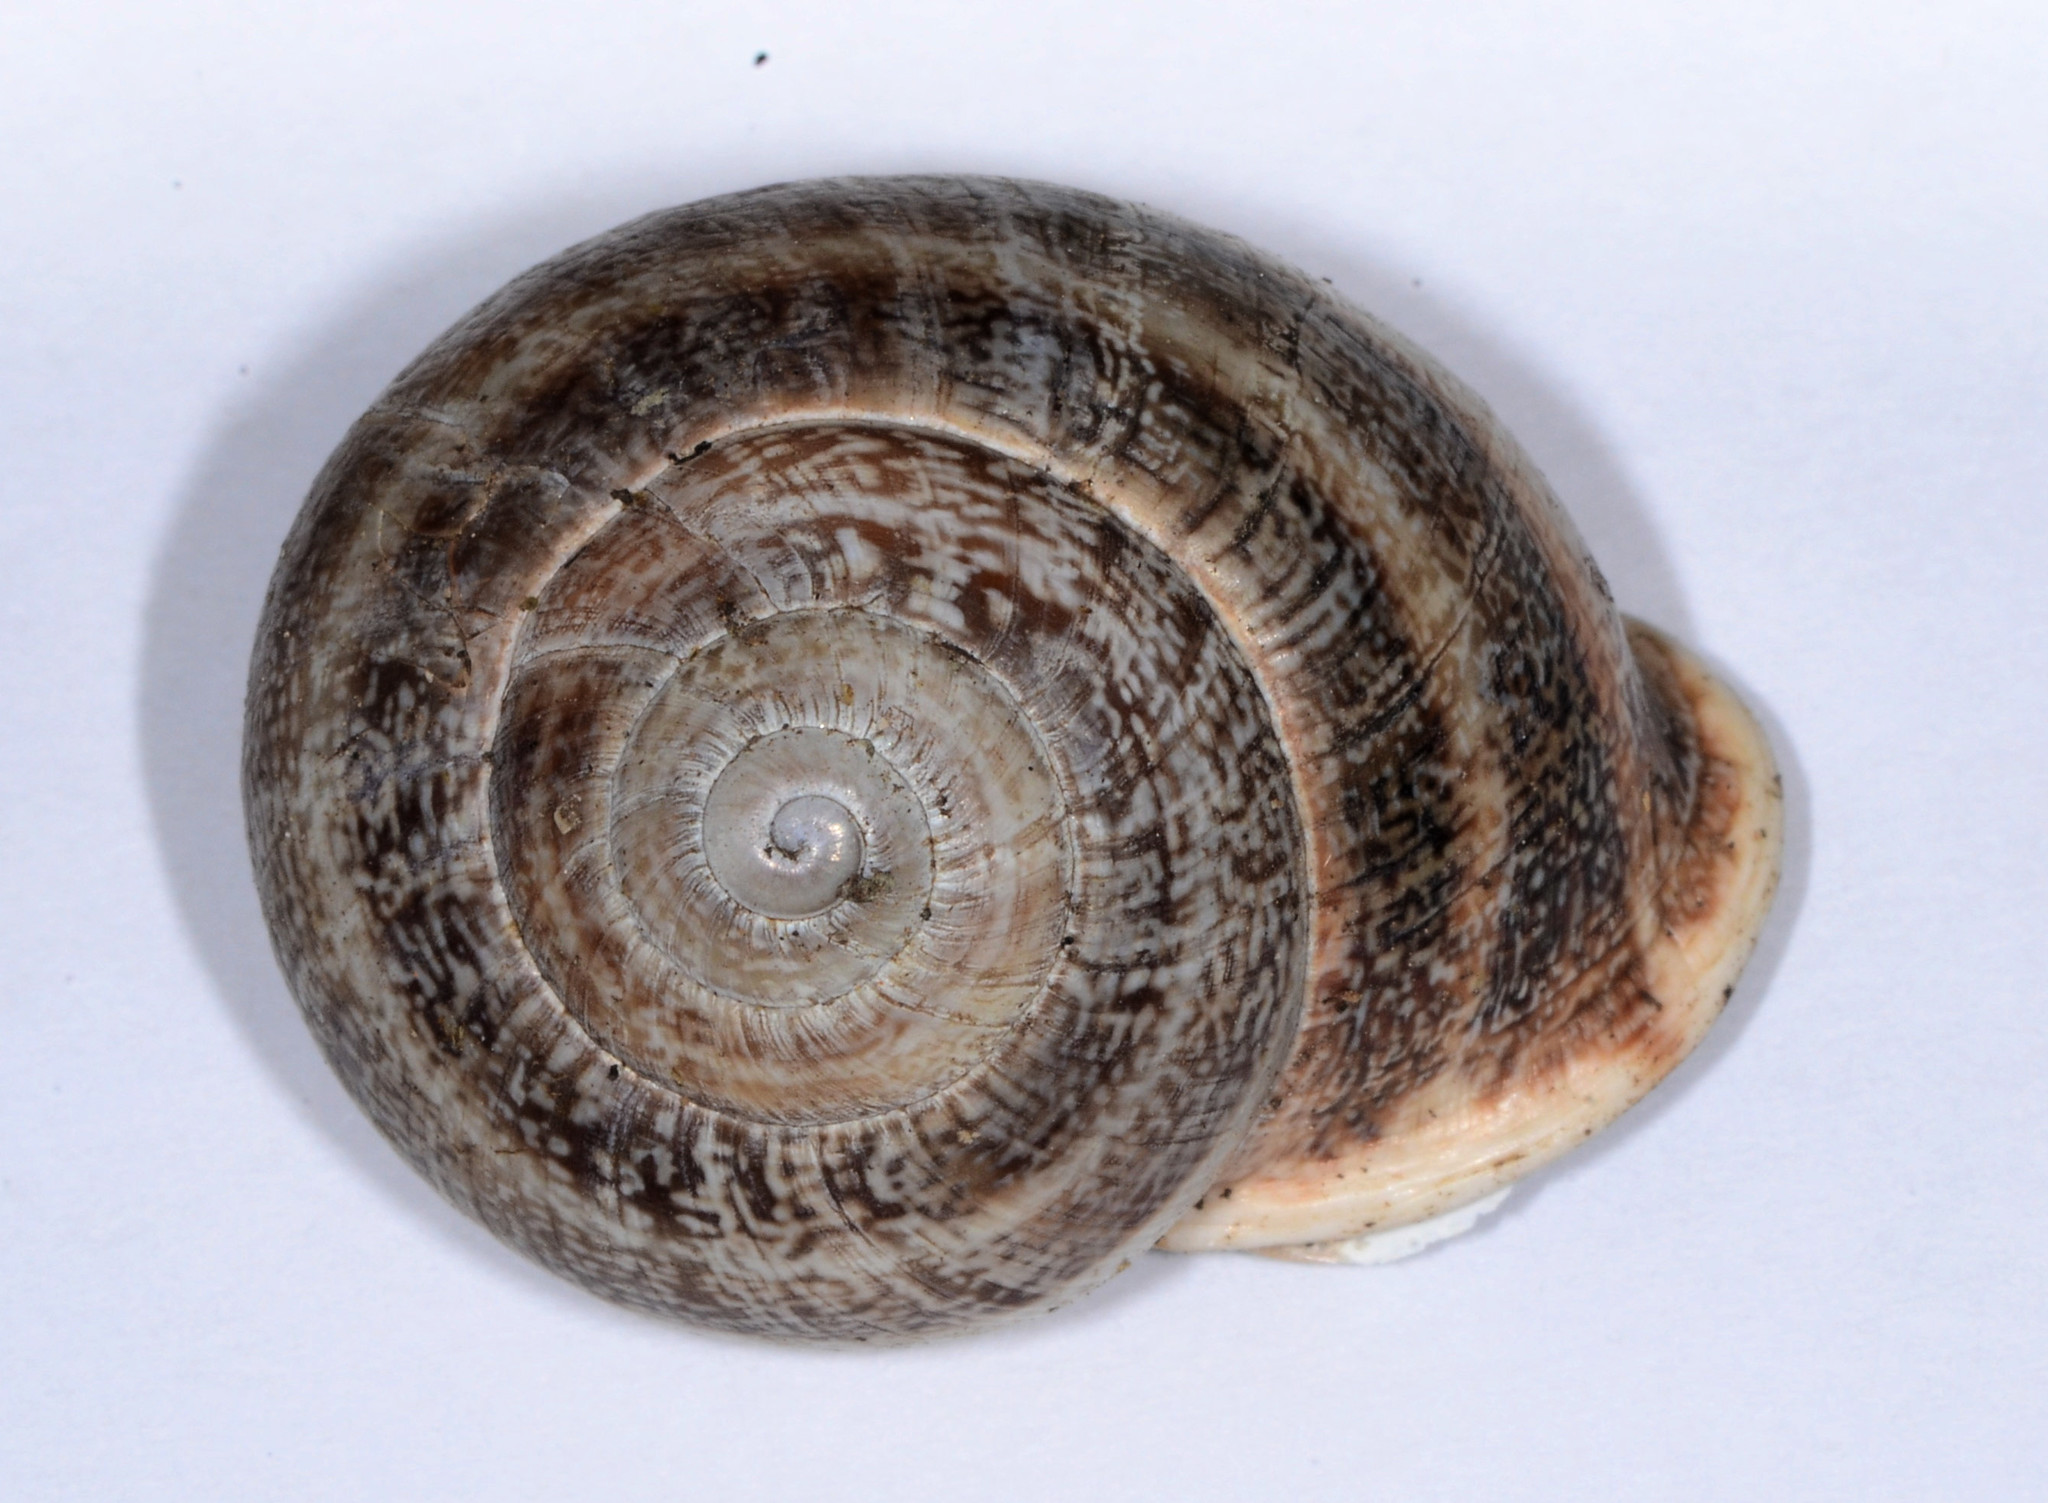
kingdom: Animalia
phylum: Mollusca
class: Gastropoda
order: Stylommatophora
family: Helicidae
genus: Otala
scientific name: Otala lactea
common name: Milk snail
